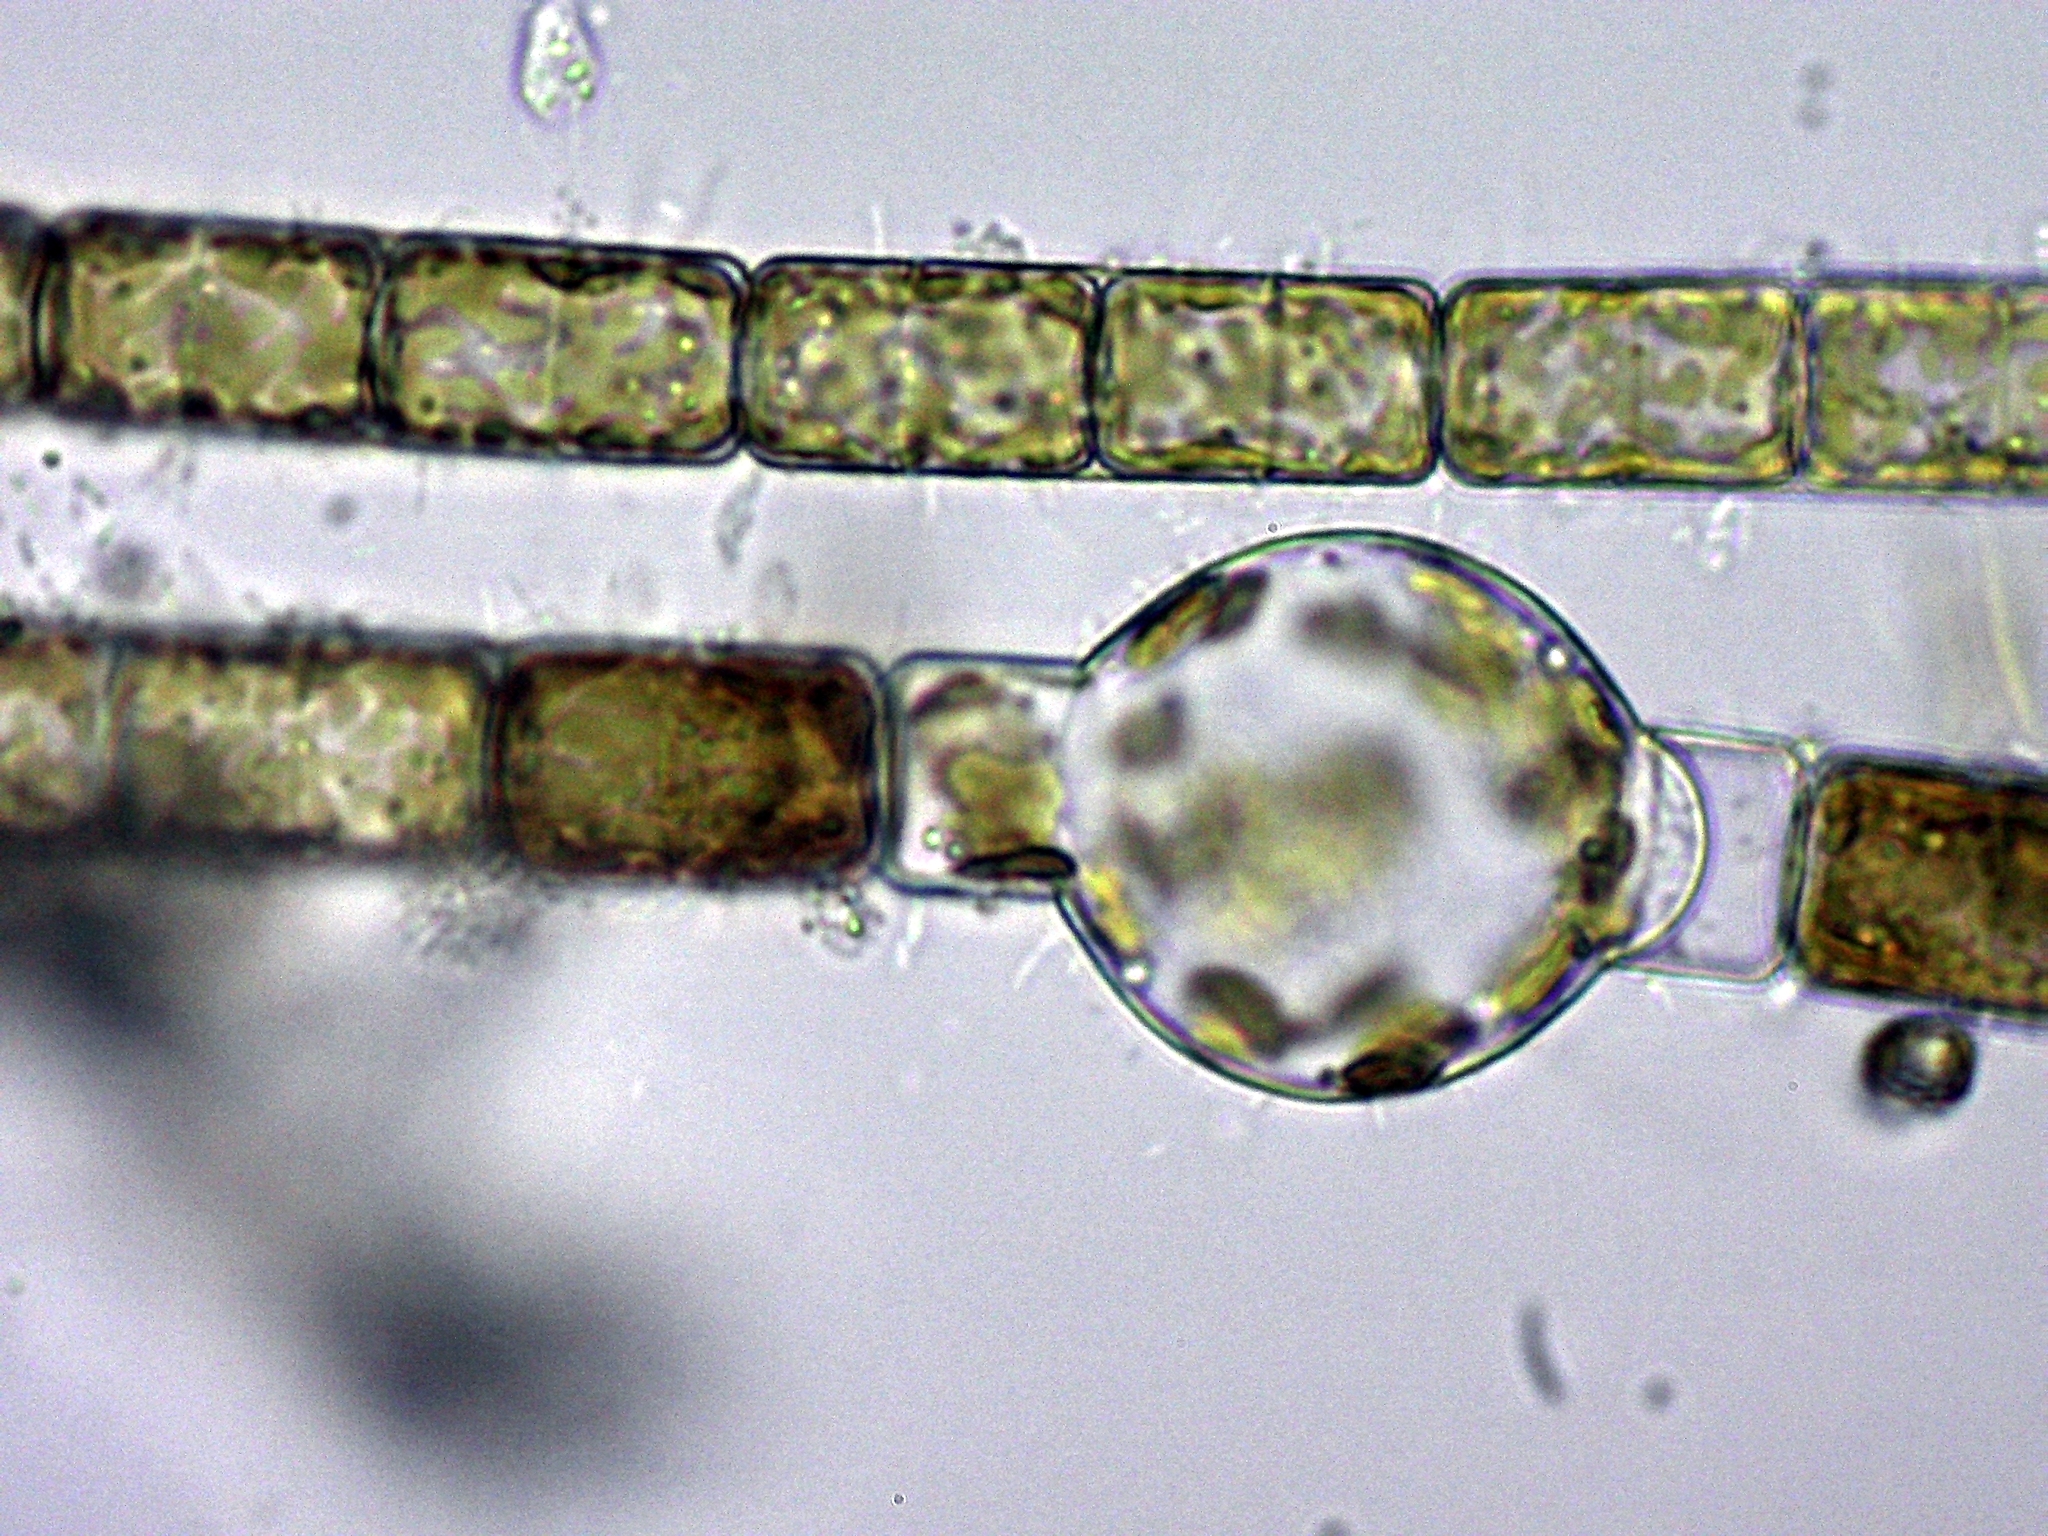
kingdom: Chromista
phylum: Ochrophyta
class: Bacillariophyceae
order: Melosirales
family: Melosiraceae
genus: Melosira
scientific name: Melosira varians
